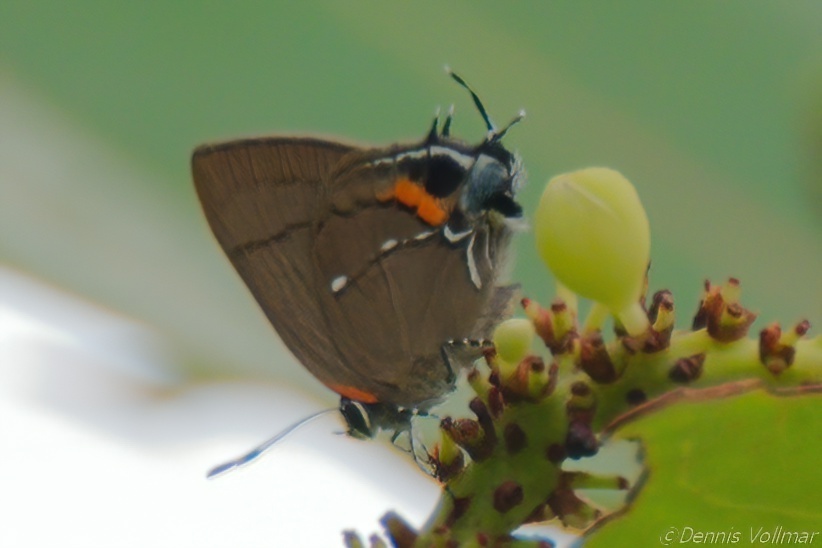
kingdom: Animalia
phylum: Arthropoda
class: Insecta
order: Lepidoptera
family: Lycaenidae
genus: Thecla
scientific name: Thecla angelia
